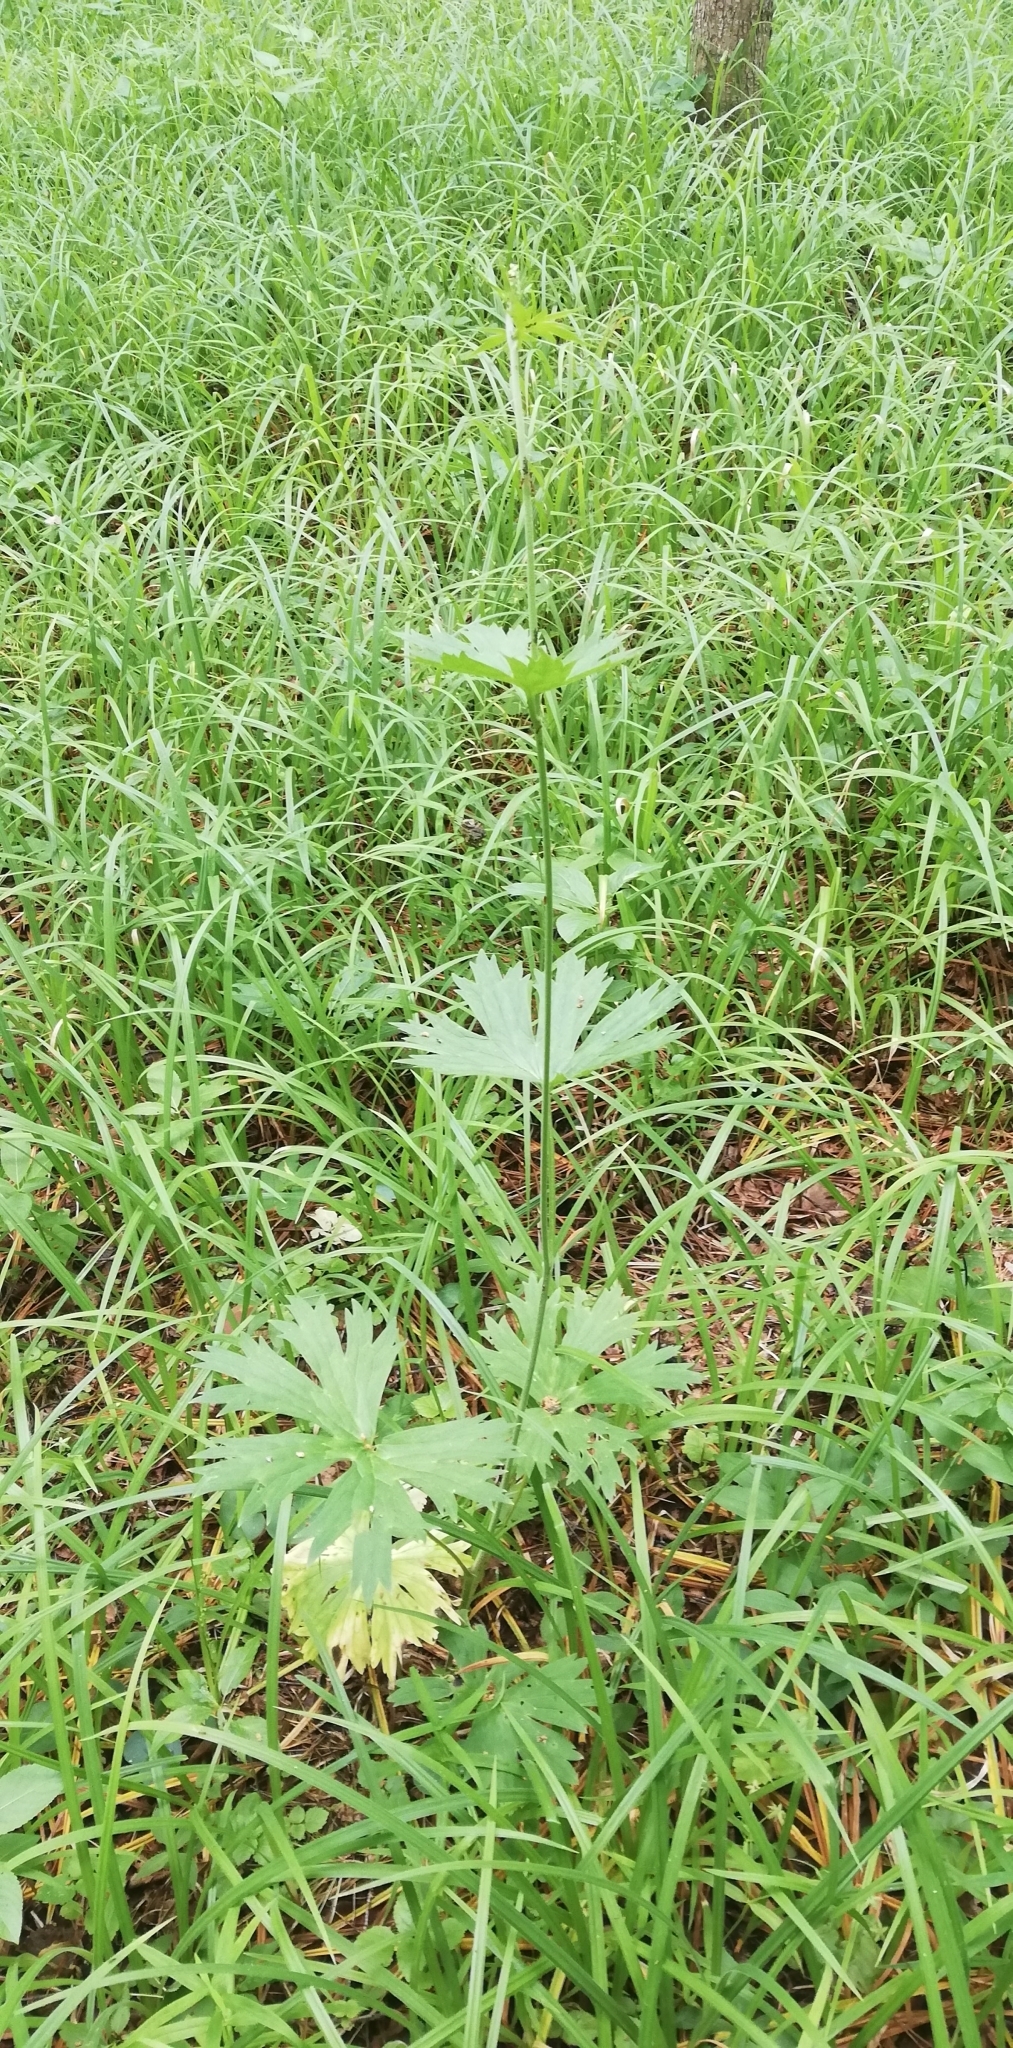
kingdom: Plantae
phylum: Tracheophyta
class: Magnoliopsida
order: Ranunculales
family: Ranunculaceae
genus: Aconitum
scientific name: Aconitum lasiostomum
